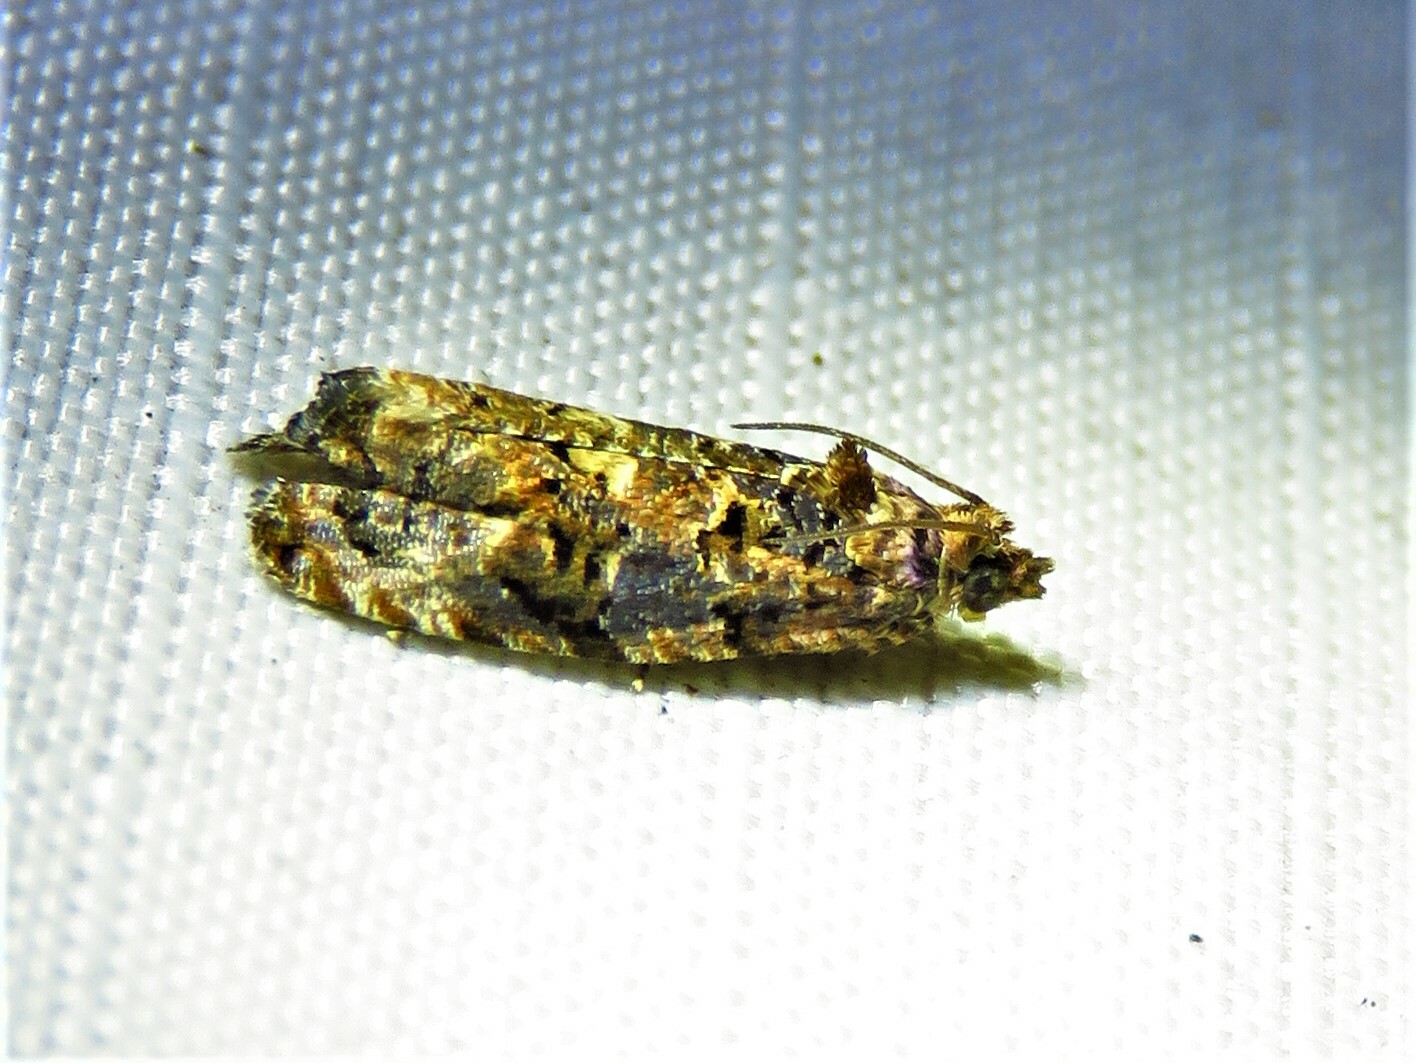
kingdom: Animalia
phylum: Arthropoda
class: Insecta
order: Lepidoptera
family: Tortricidae
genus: Endothenia
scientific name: Endothenia hebesana
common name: Verbena bud moth
